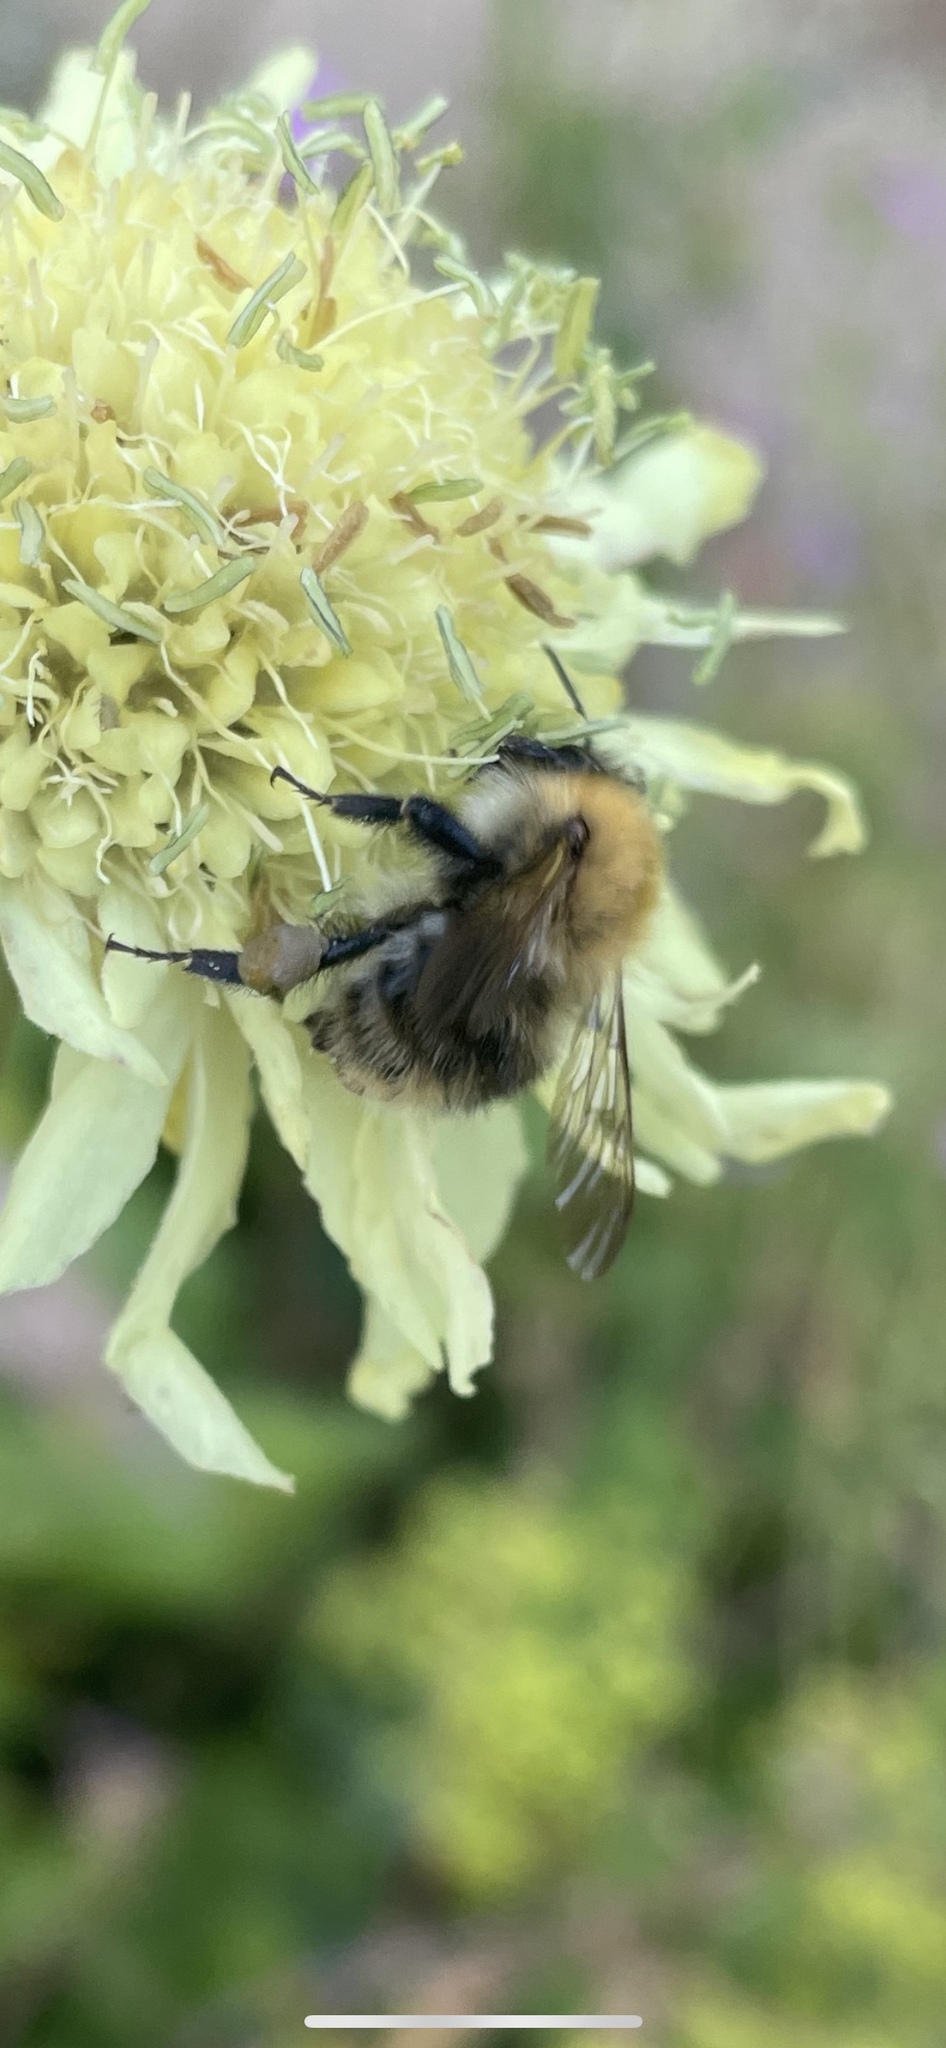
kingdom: Animalia
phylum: Arthropoda
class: Insecta
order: Hymenoptera
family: Apidae
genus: Bombus
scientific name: Bombus pascuorum
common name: Common carder bee
